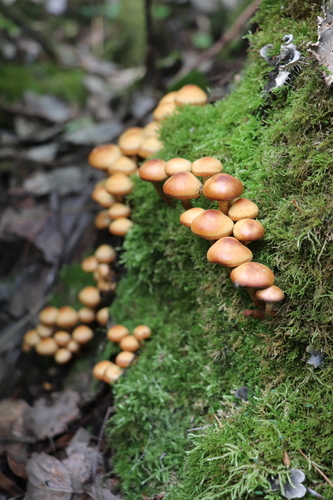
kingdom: Fungi
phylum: Basidiomycota
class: Agaricomycetes
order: Agaricales
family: Strophariaceae
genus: Kuehneromyces
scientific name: Kuehneromyces mutabilis
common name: Sheathed woodtuft
